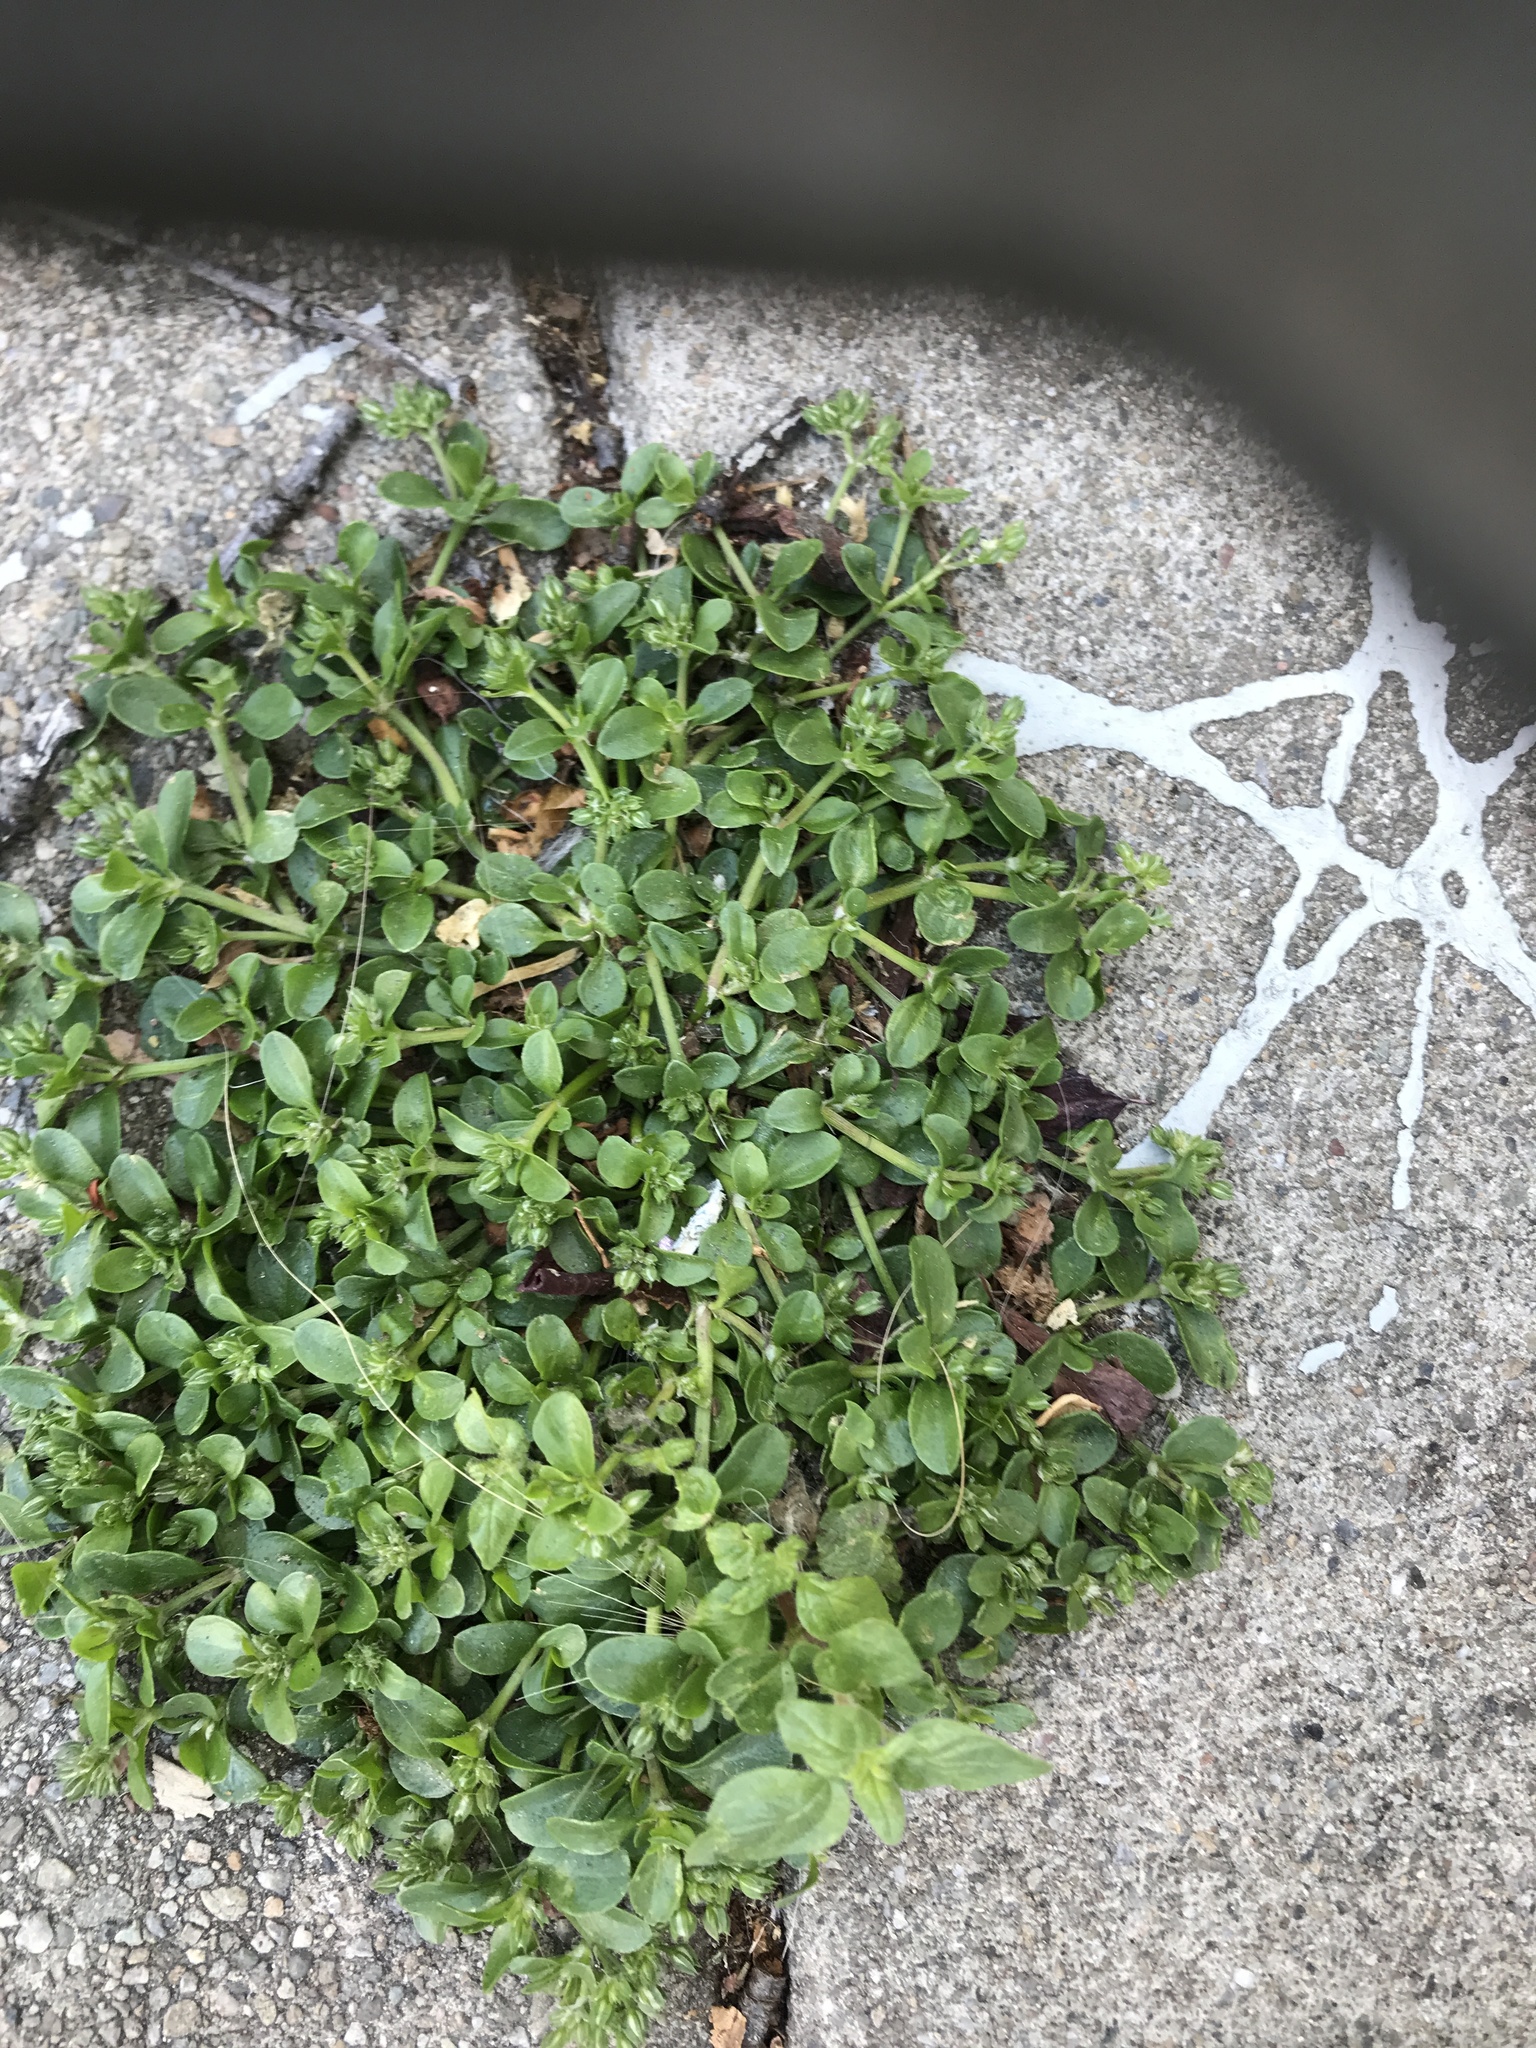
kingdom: Plantae
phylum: Tracheophyta
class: Magnoliopsida
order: Caryophyllales
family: Caryophyllaceae
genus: Polycarpon
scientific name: Polycarpon tetraphyllum
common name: Four-leaved all-seed
